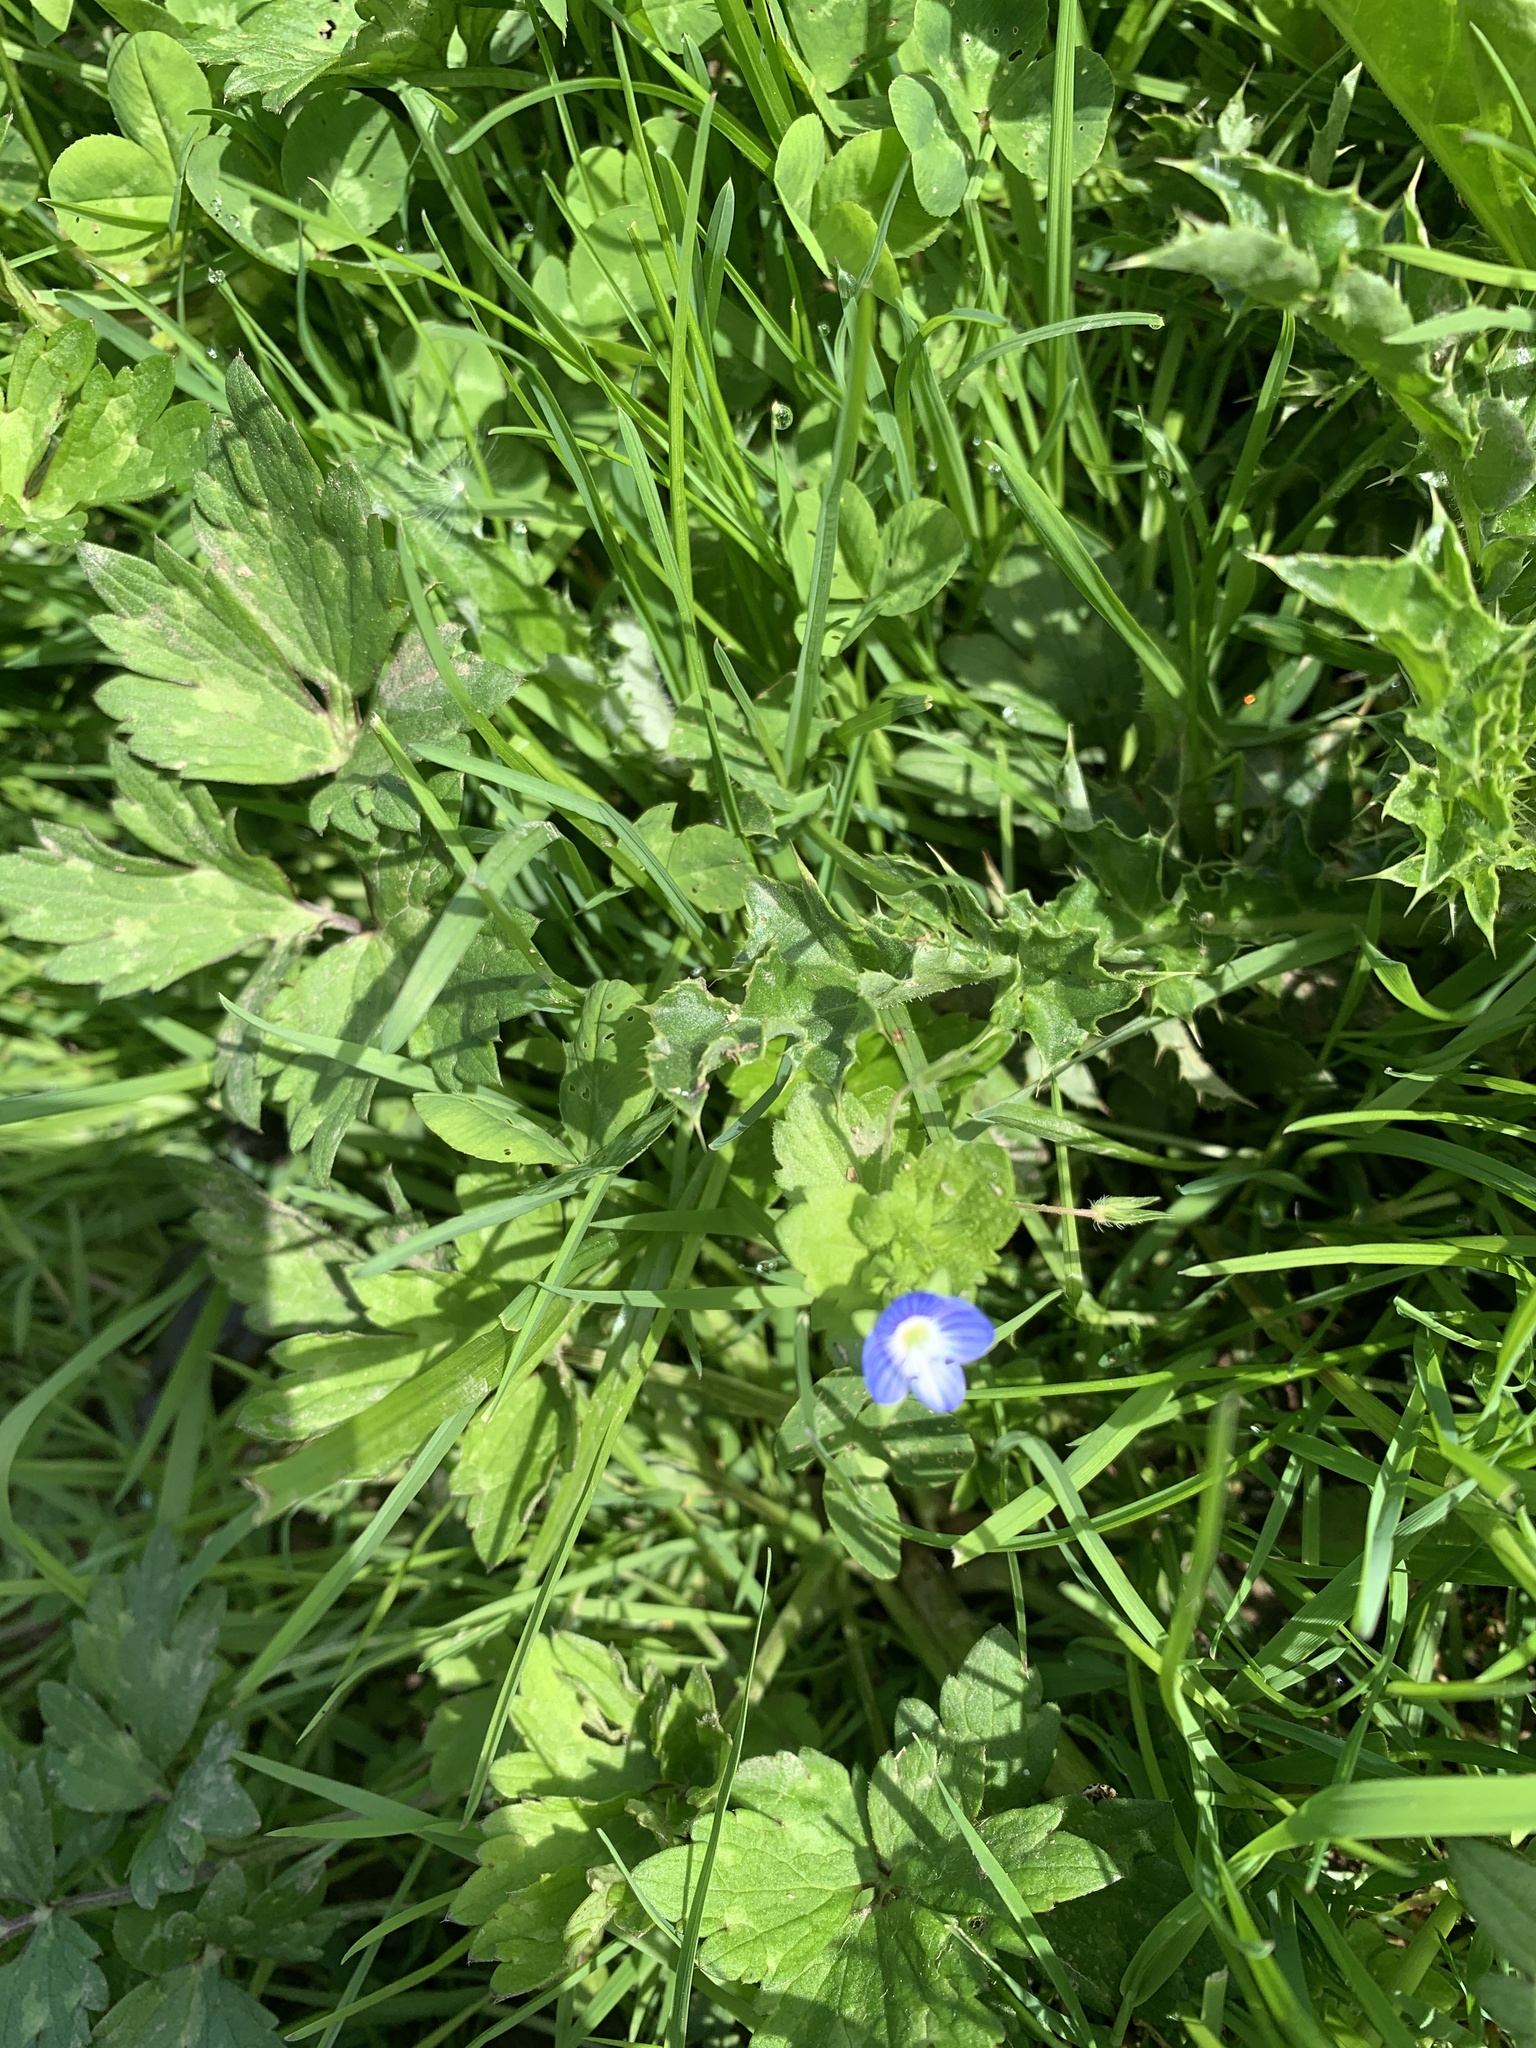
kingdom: Plantae
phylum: Tracheophyta
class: Magnoliopsida
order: Lamiales
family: Plantaginaceae
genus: Veronica
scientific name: Veronica persica
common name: Common field-speedwell
